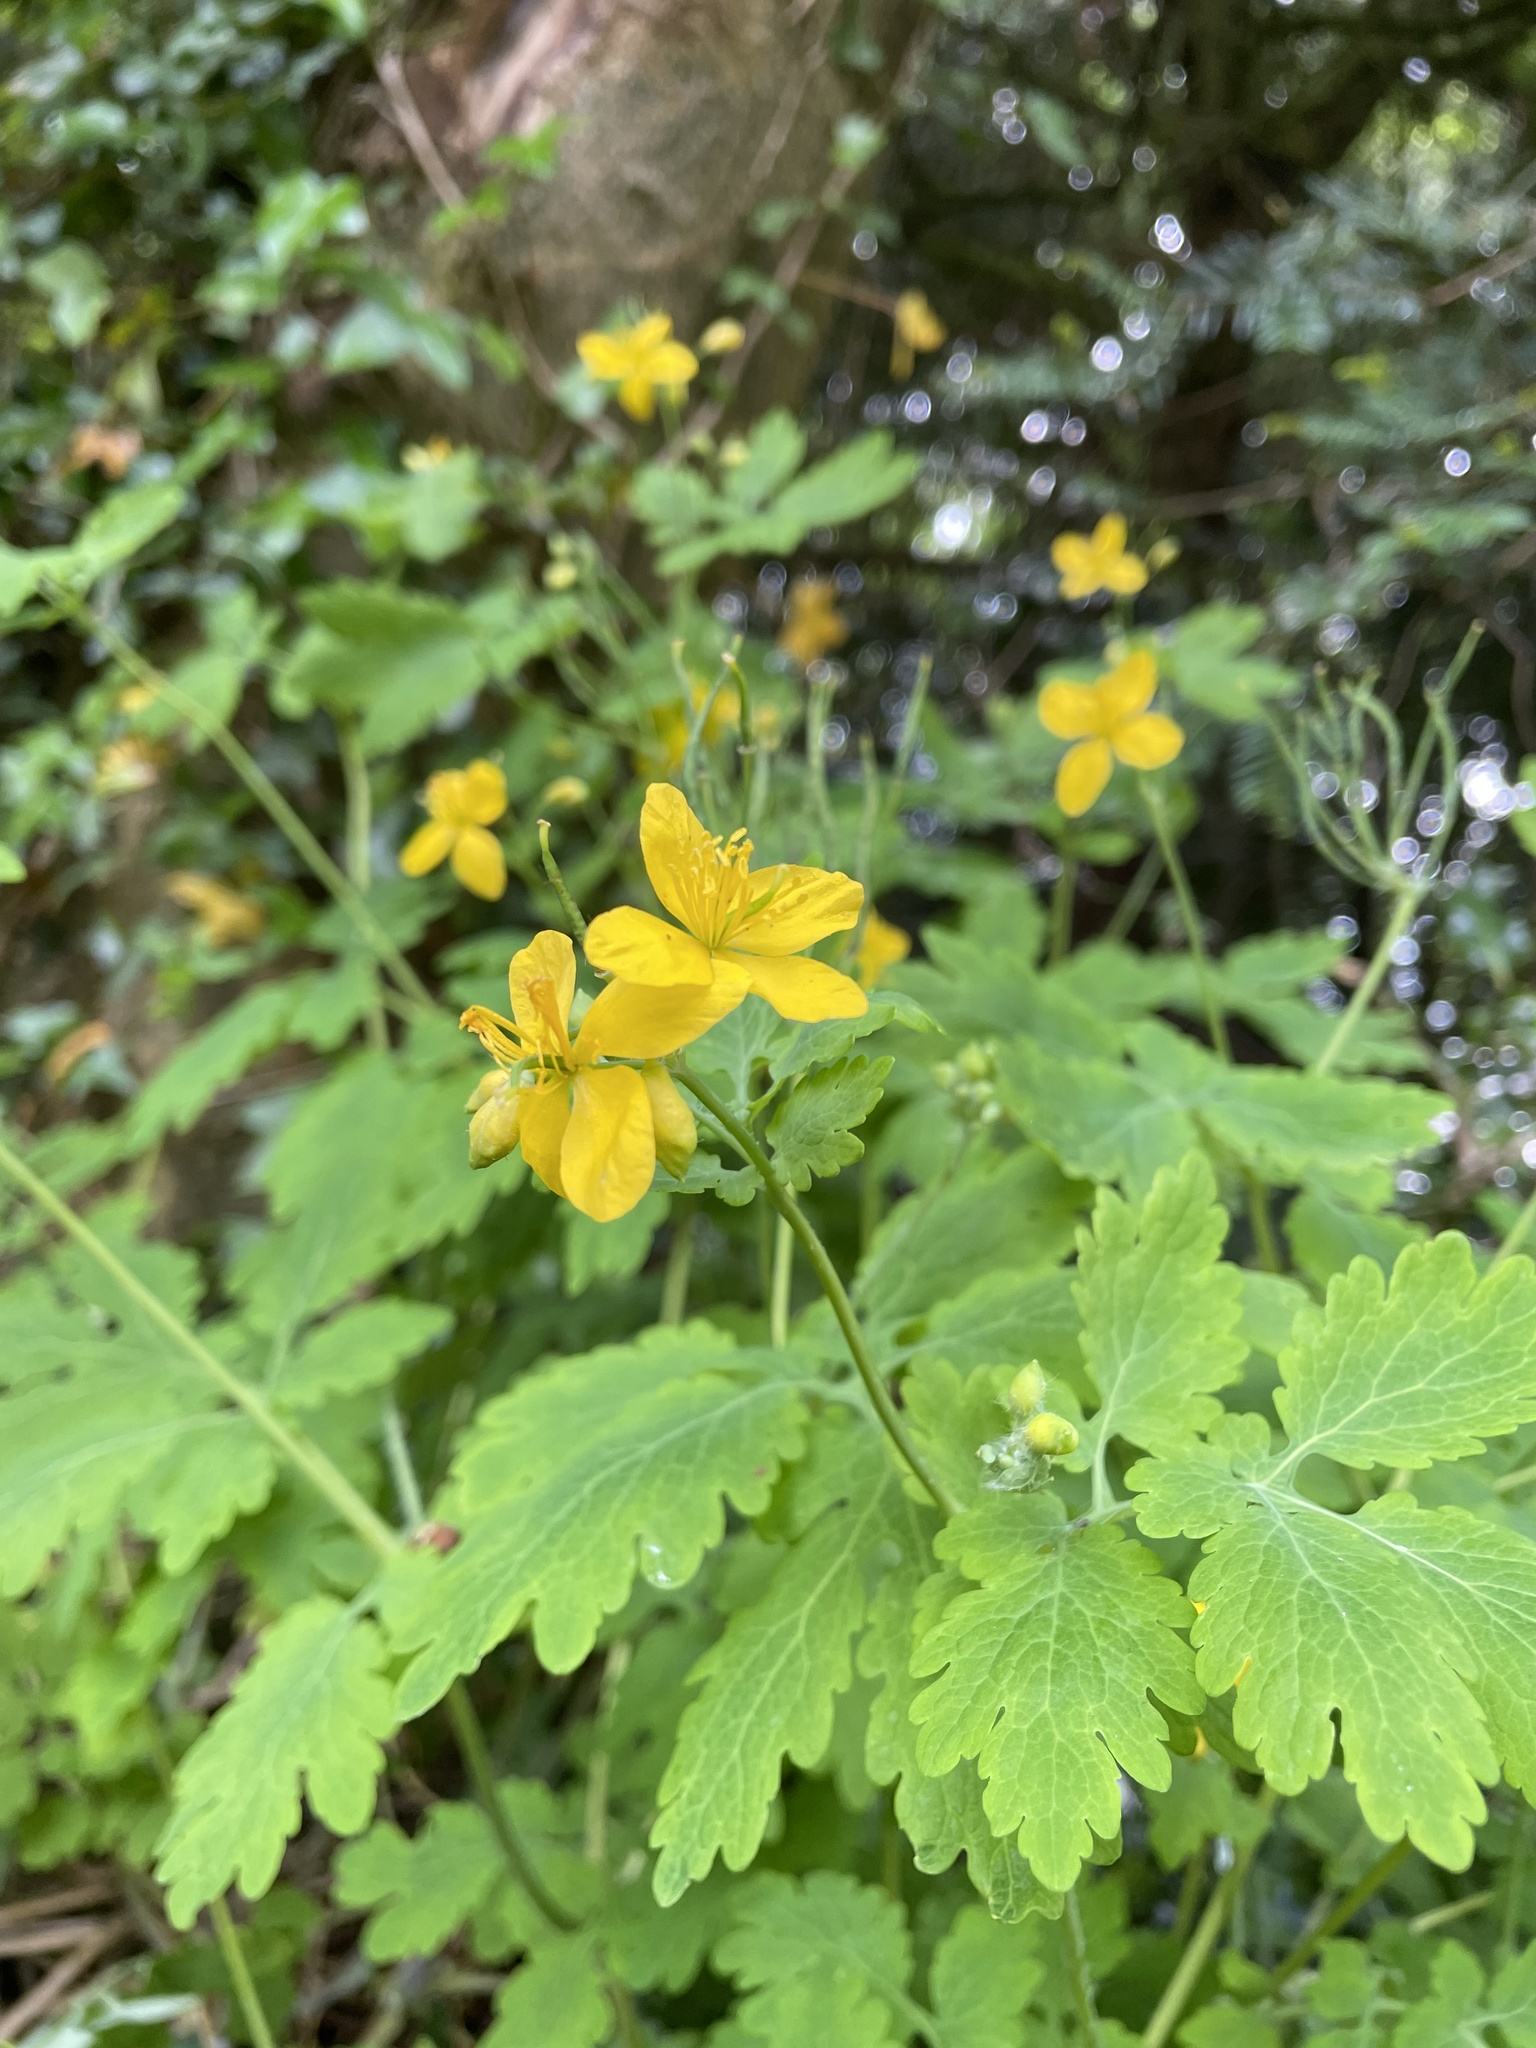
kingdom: Plantae
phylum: Tracheophyta
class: Magnoliopsida
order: Ranunculales
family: Papaveraceae
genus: Chelidonium
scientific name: Chelidonium majus
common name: Greater celandine
